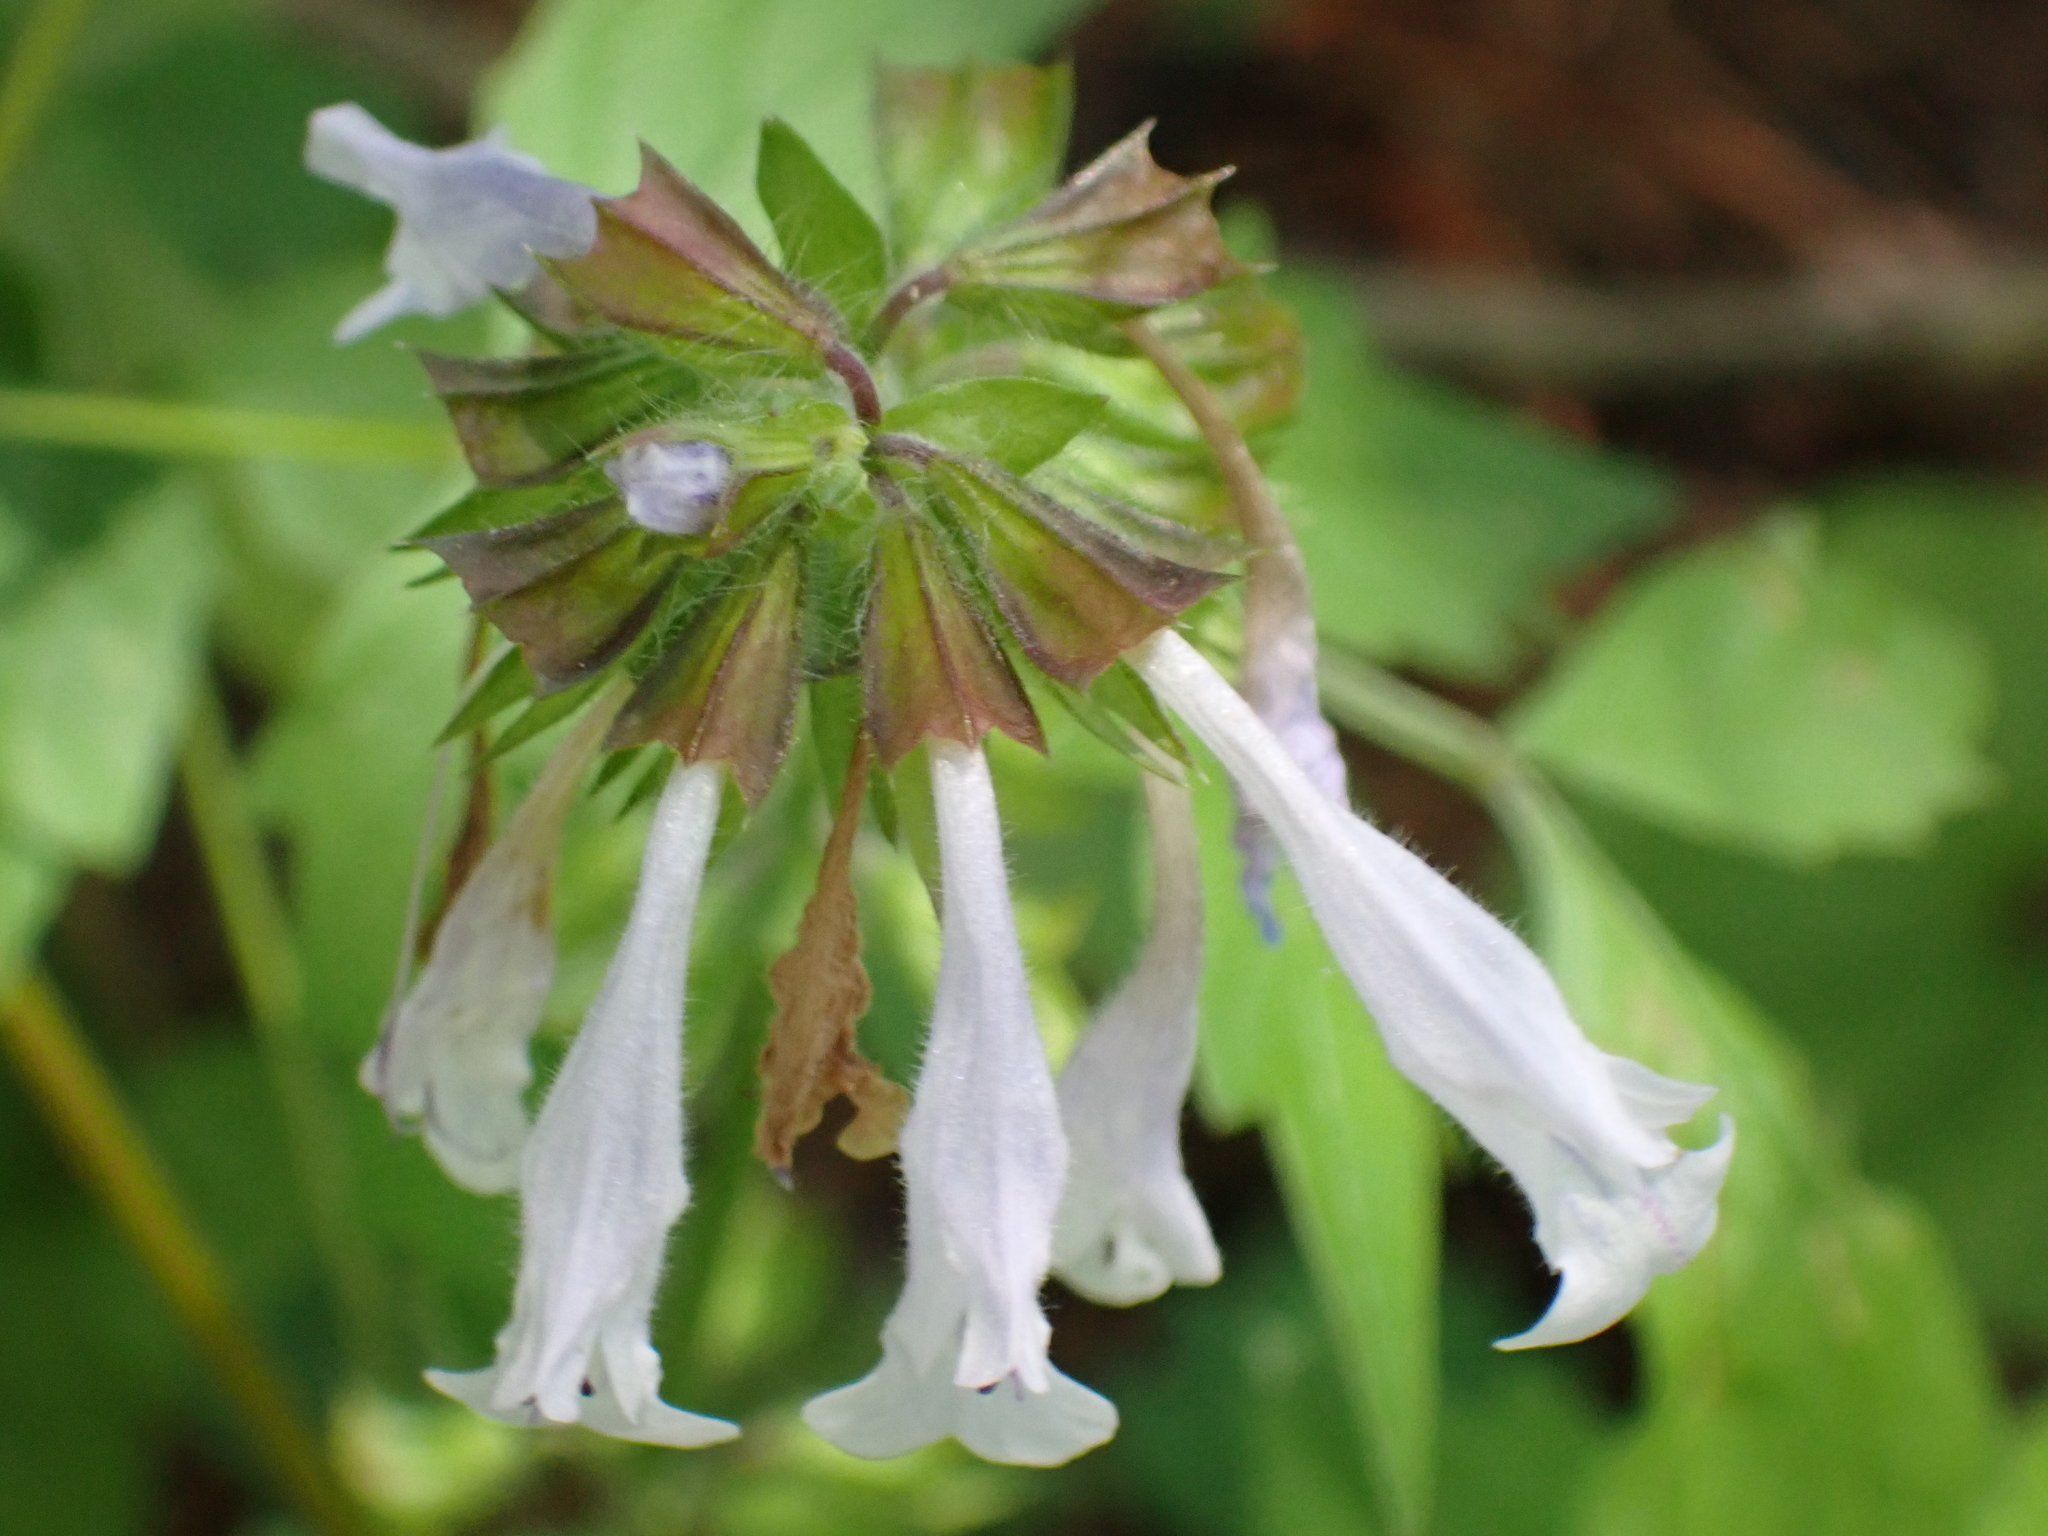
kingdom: Plantae
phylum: Tracheophyta
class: Magnoliopsida
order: Lamiales
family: Lamiaceae
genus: Salvia
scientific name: Salvia lyrata
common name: Cancerweed
